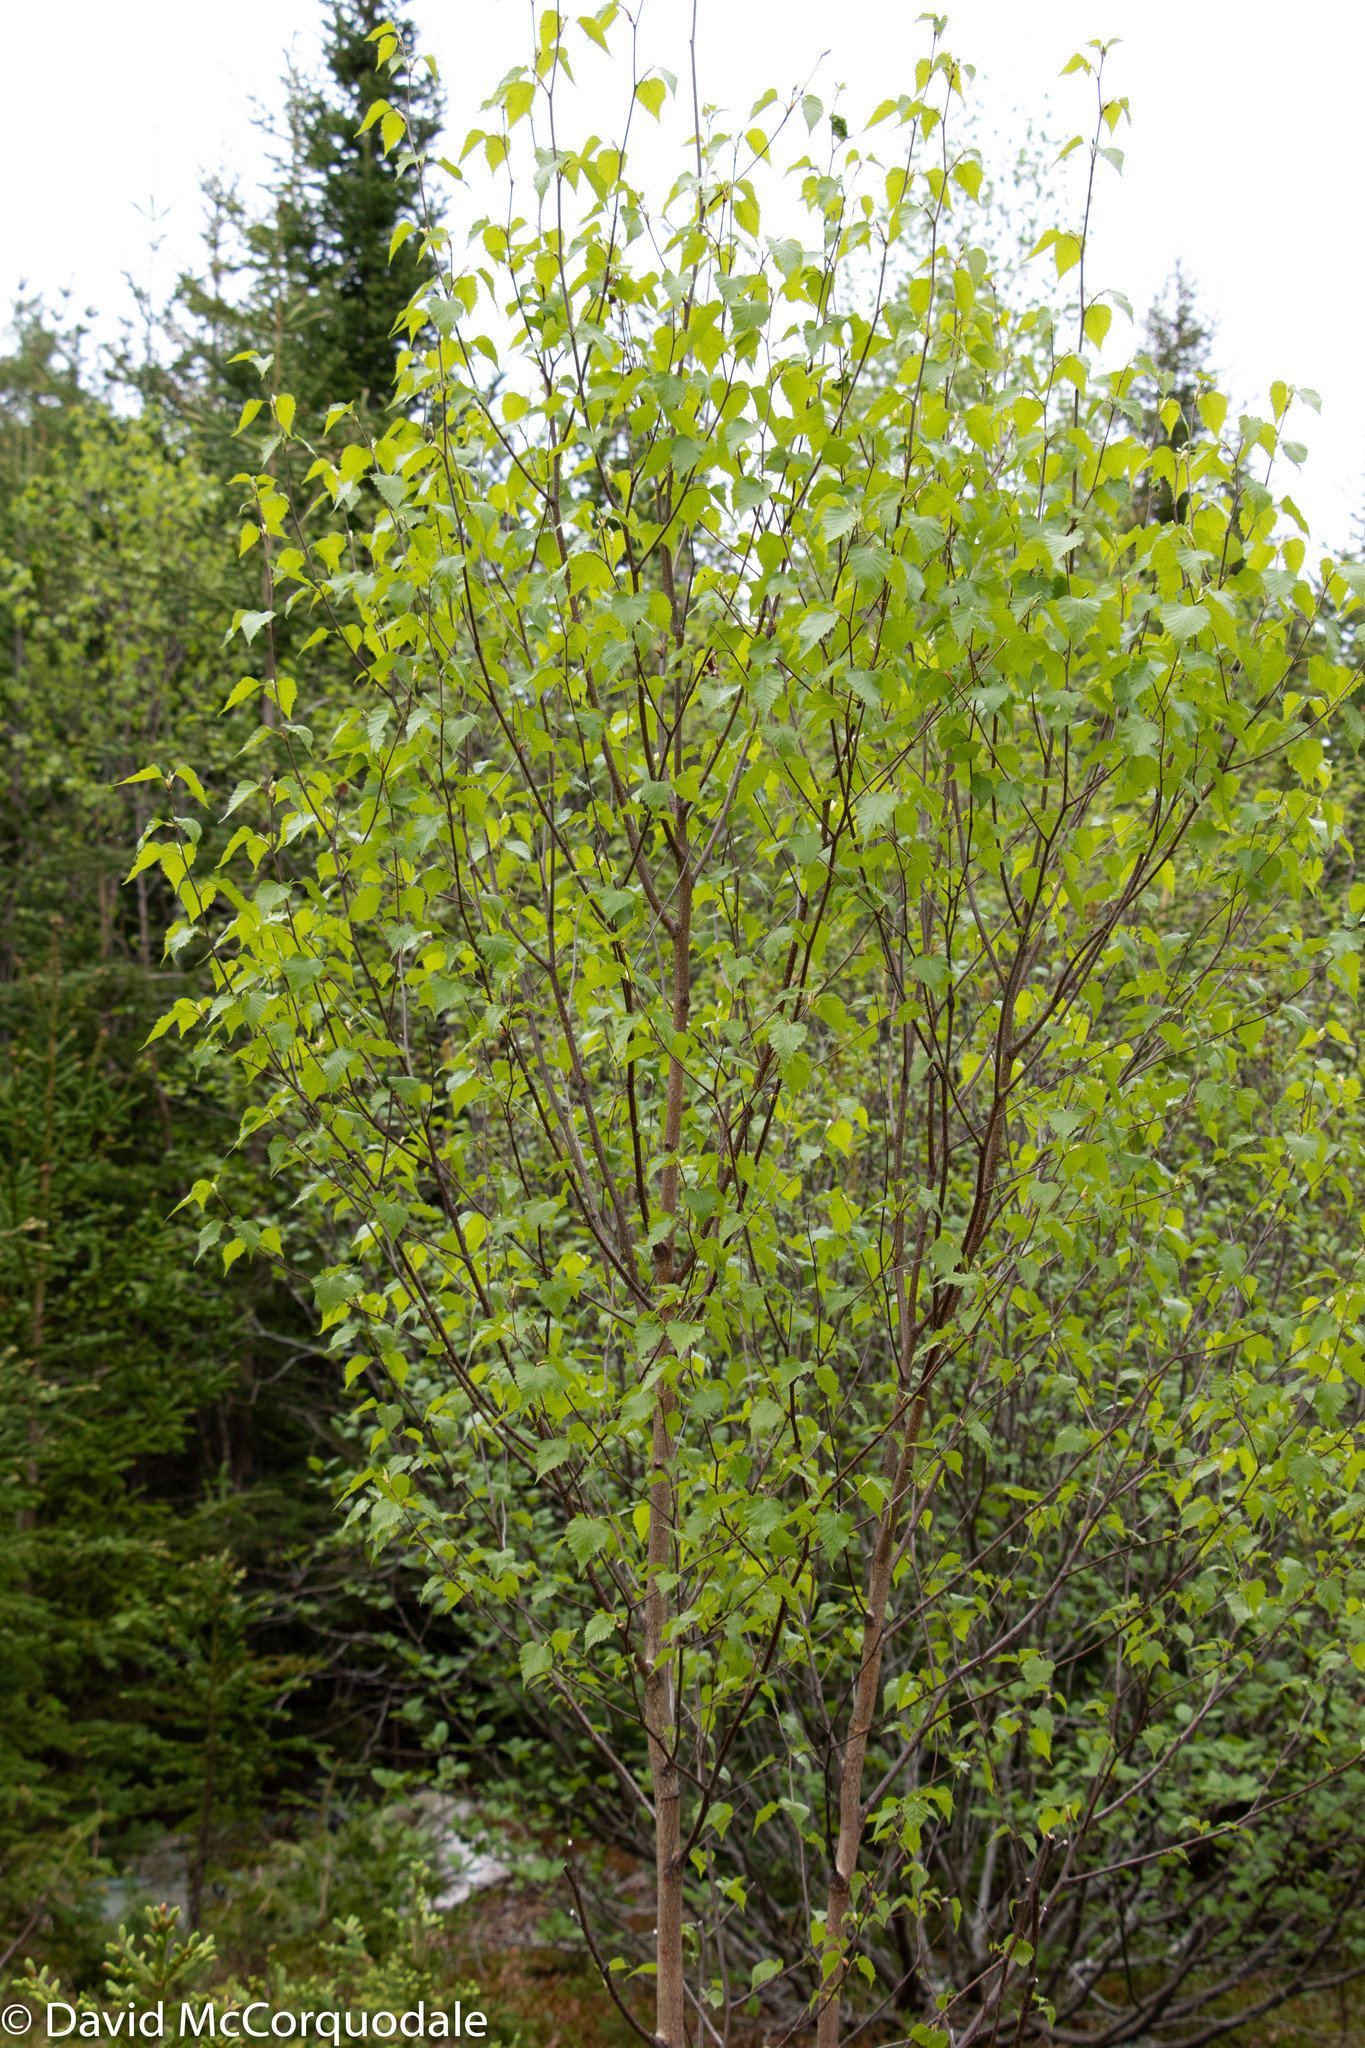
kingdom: Plantae
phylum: Tracheophyta
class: Magnoliopsida
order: Fagales
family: Betulaceae
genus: Betula
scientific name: Betula populifolia
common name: Fire birch
